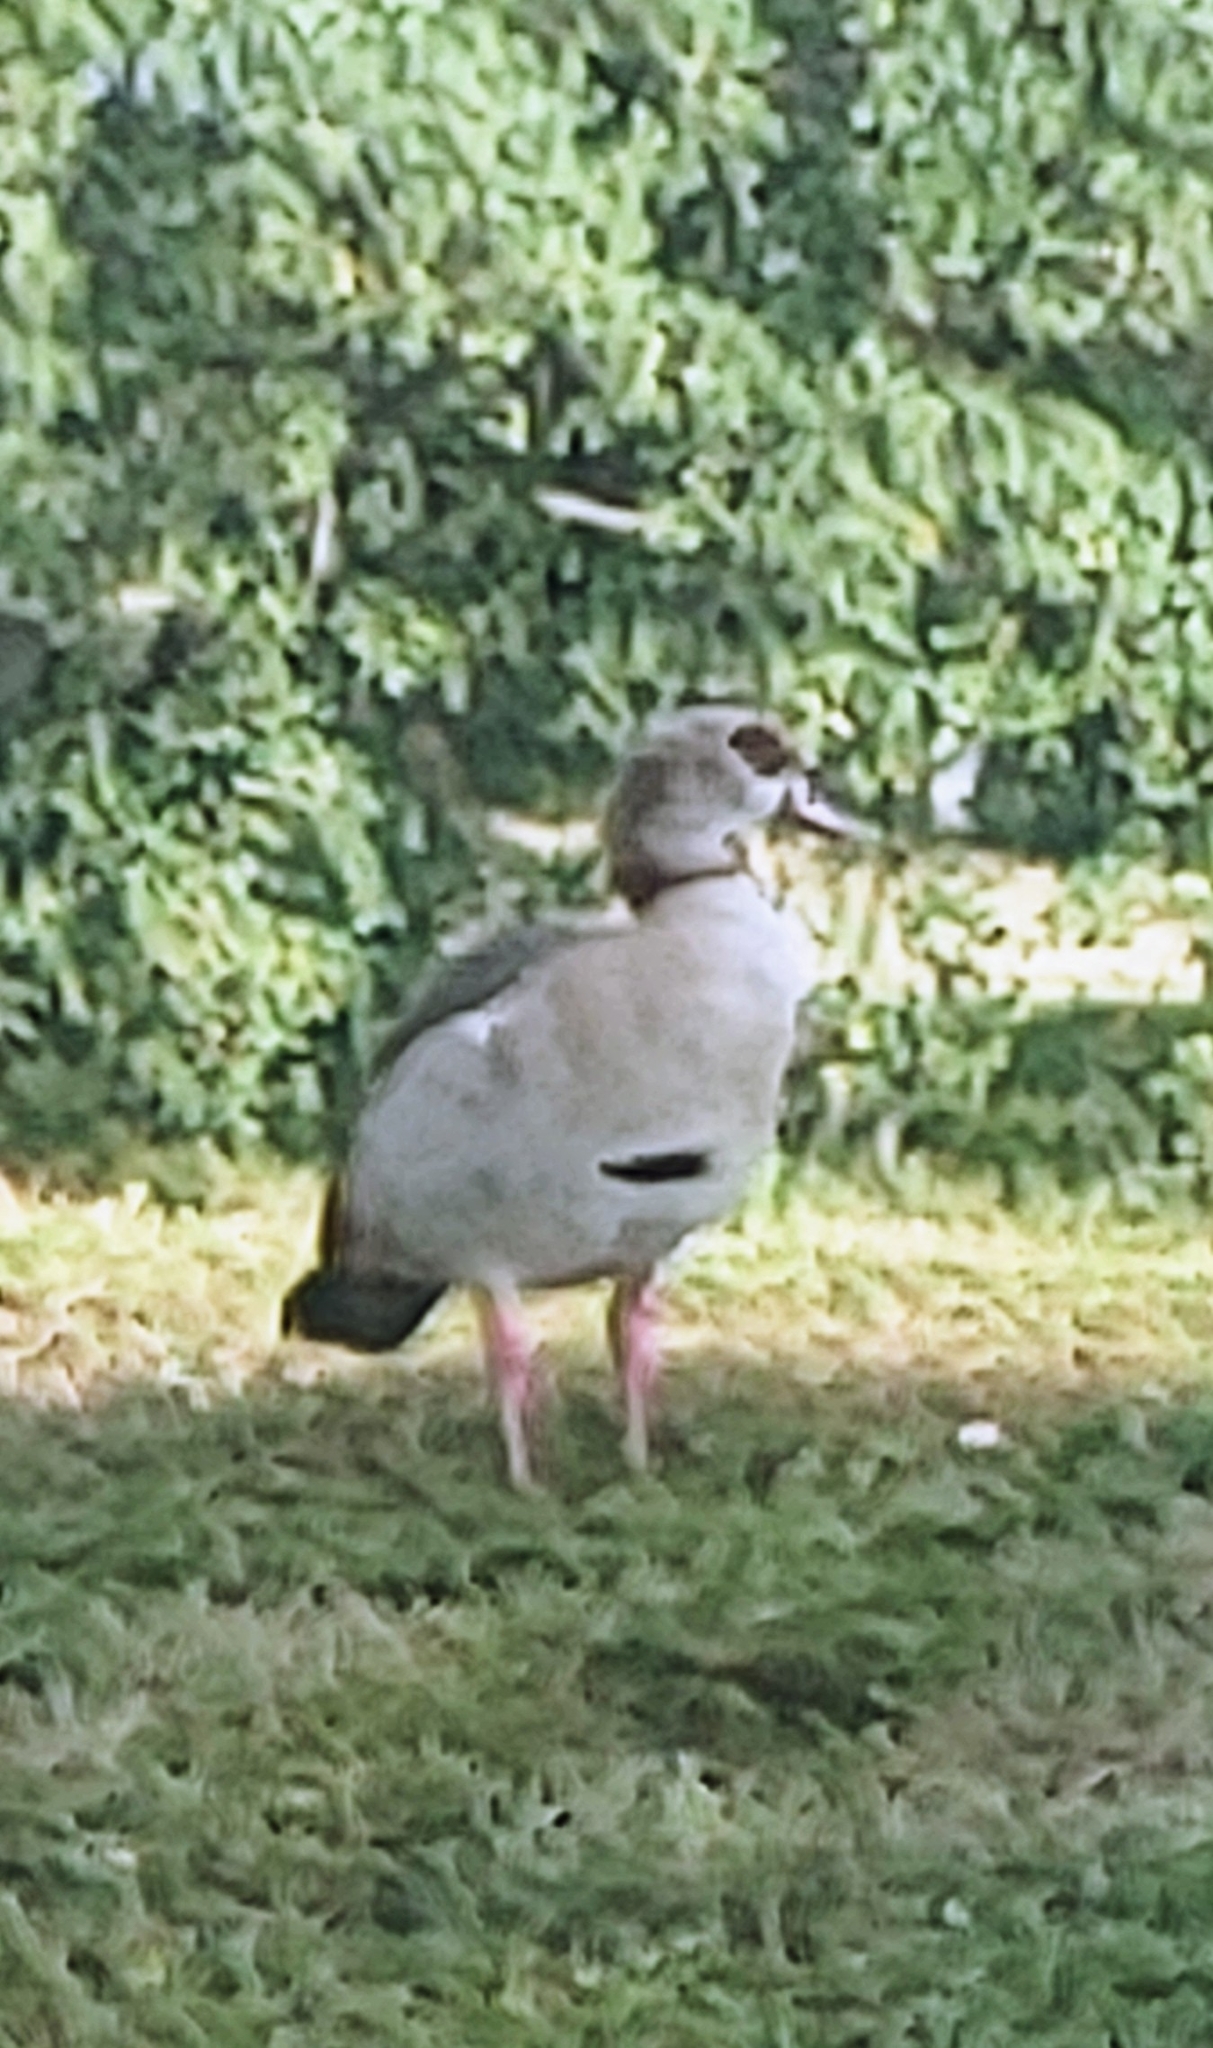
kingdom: Animalia
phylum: Chordata
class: Aves
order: Anseriformes
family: Anatidae
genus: Alopochen
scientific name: Alopochen aegyptiaca
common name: Egyptian goose
